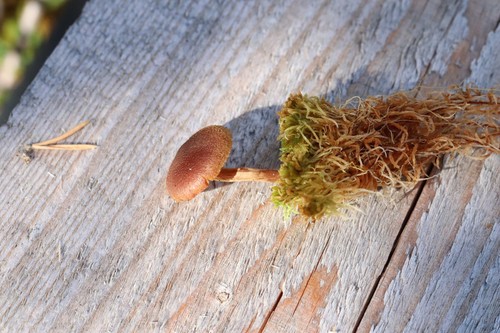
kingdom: Fungi
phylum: Basidiomycota
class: Agaricomycetes
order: Agaricales
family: Cortinariaceae
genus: Cortinarius
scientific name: Cortinarius cinnamomeus
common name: Cinnamon webcap
